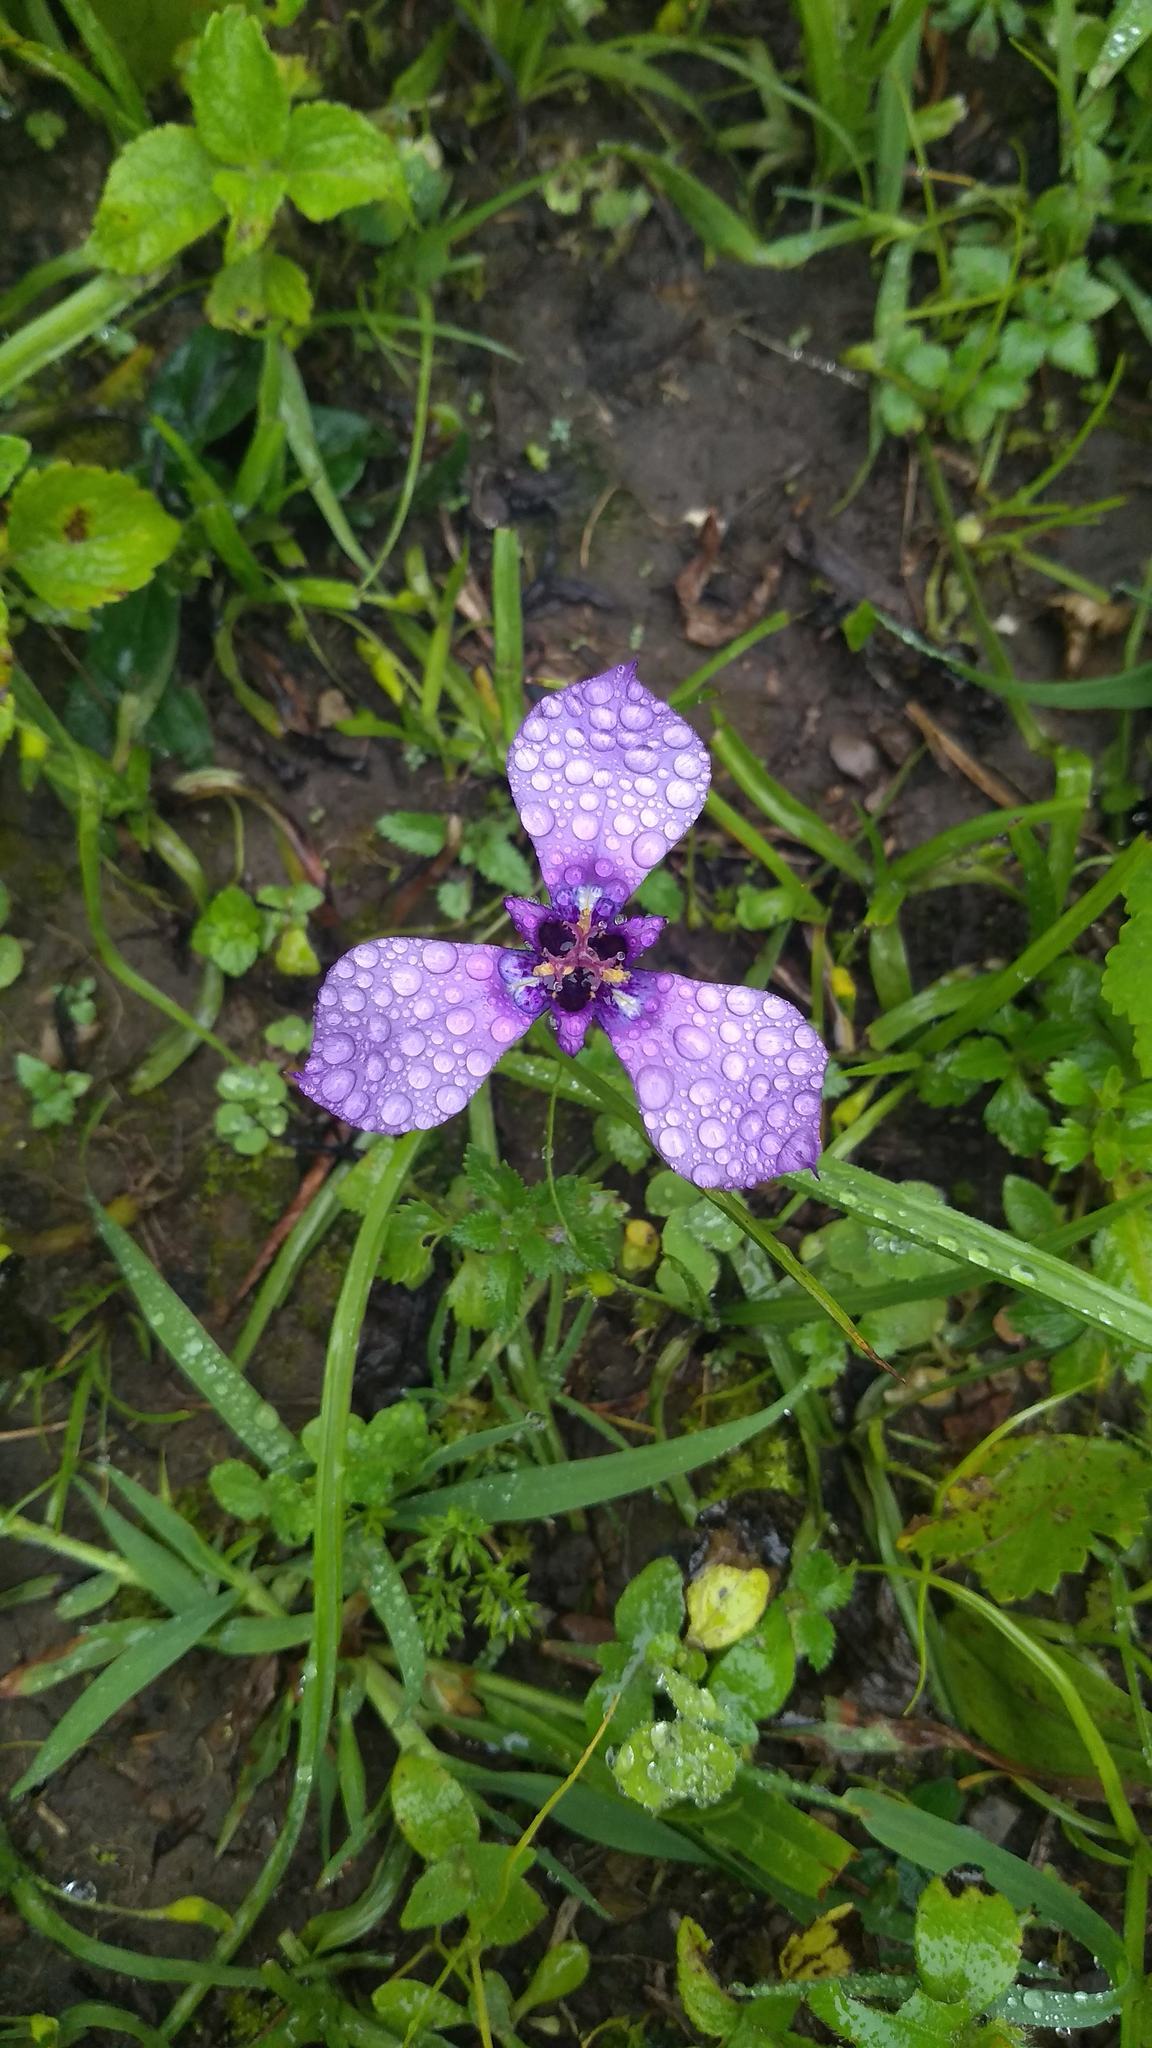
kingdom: Plantae
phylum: Tracheophyta
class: Liliopsida
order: Asparagales
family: Iridaceae
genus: Herbertia
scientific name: Herbertia tigridioides
